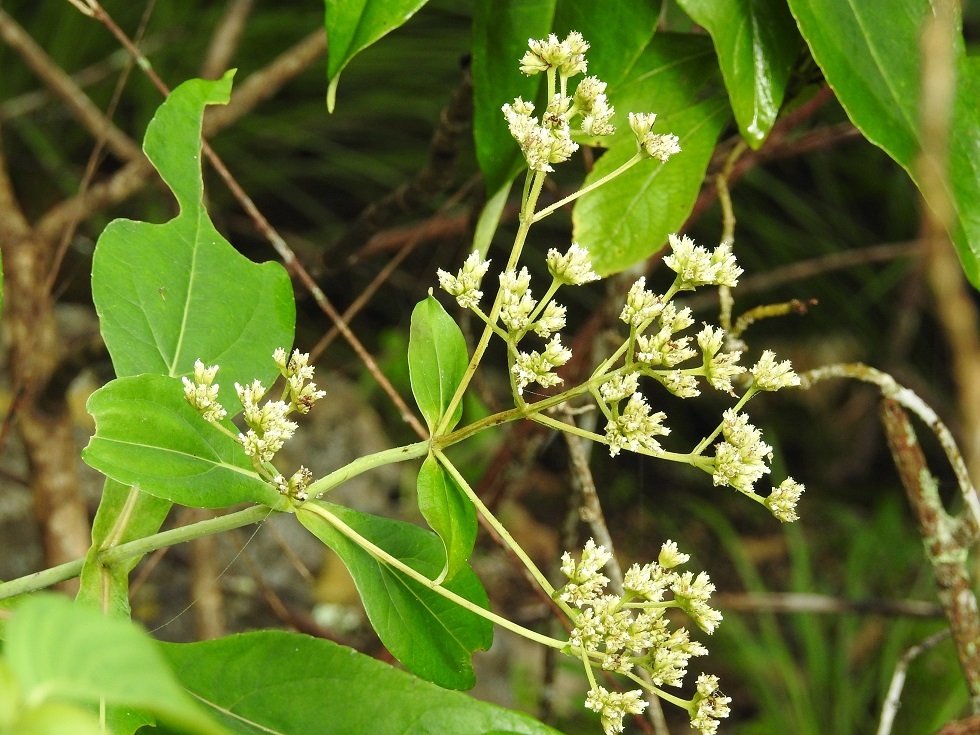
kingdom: Plantae
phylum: Tracheophyta
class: Magnoliopsida
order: Asterales
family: Asteraceae
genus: Desmanthodium
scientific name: Desmanthodium perfoliatum
